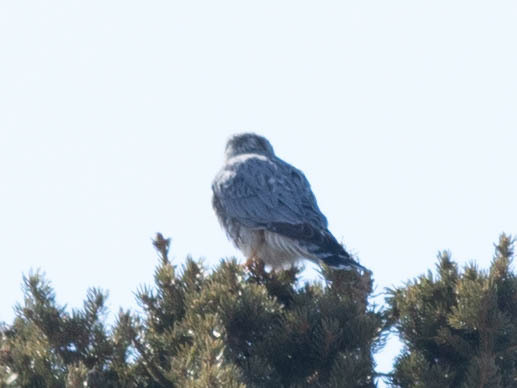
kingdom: Animalia
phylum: Chordata
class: Aves
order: Falconiformes
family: Falconidae
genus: Falco
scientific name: Falco columbarius
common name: Merlin
